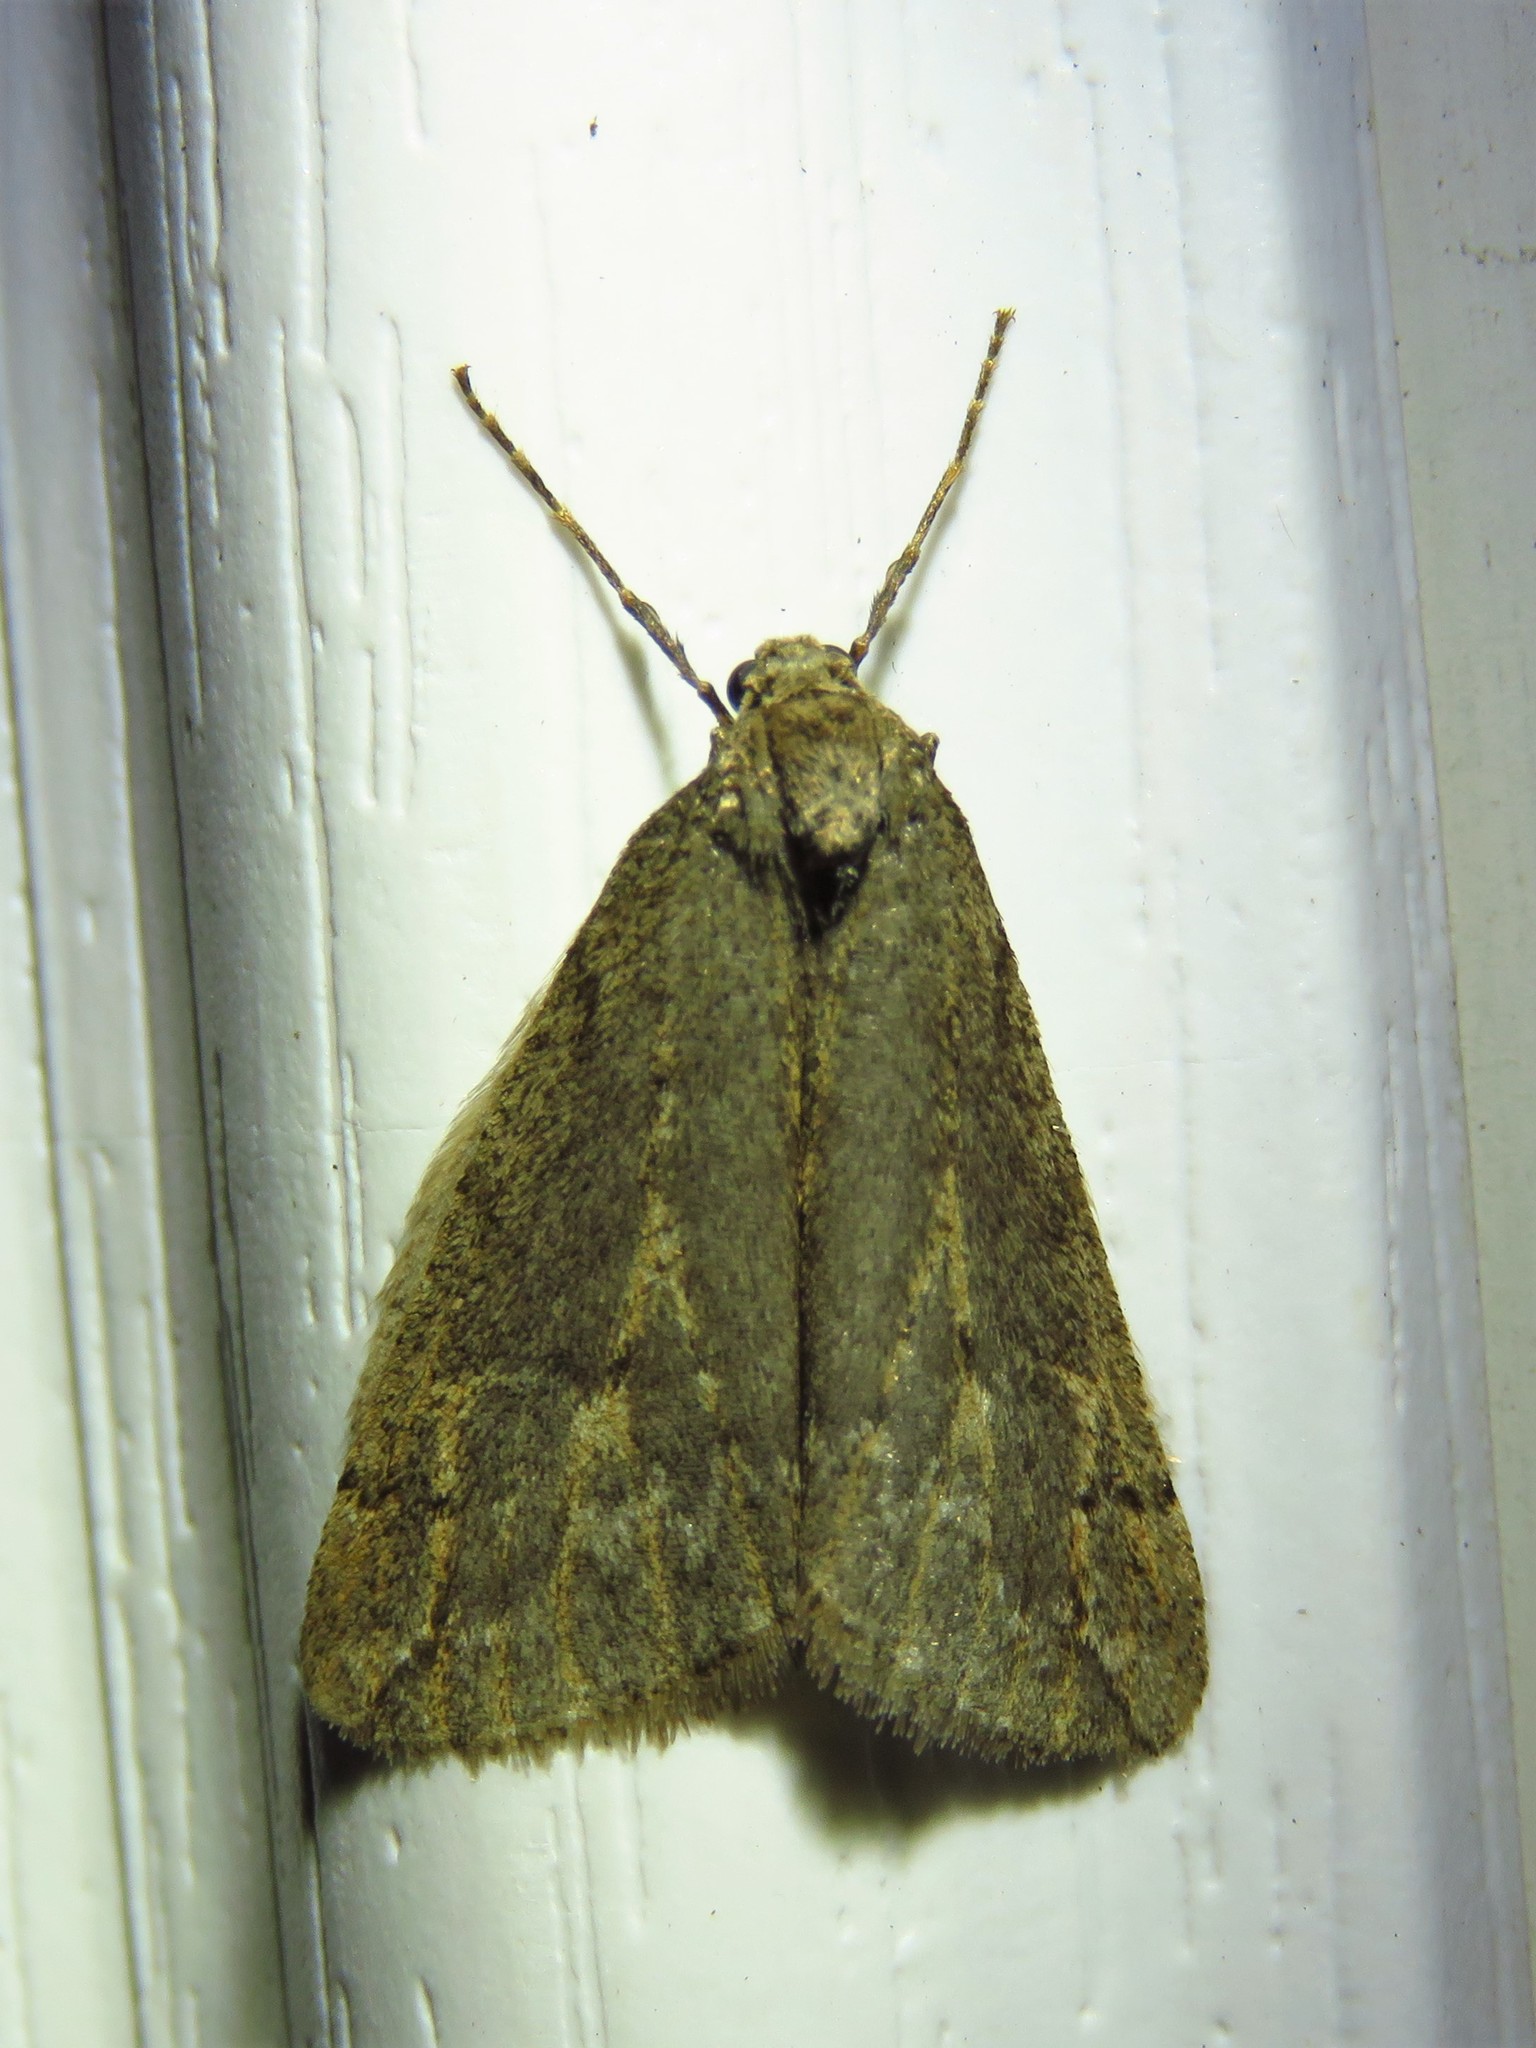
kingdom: Animalia
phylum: Arthropoda
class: Insecta
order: Lepidoptera
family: Geometridae
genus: Paleacrita
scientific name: Paleacrita vernata
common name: Spring cankerworm
